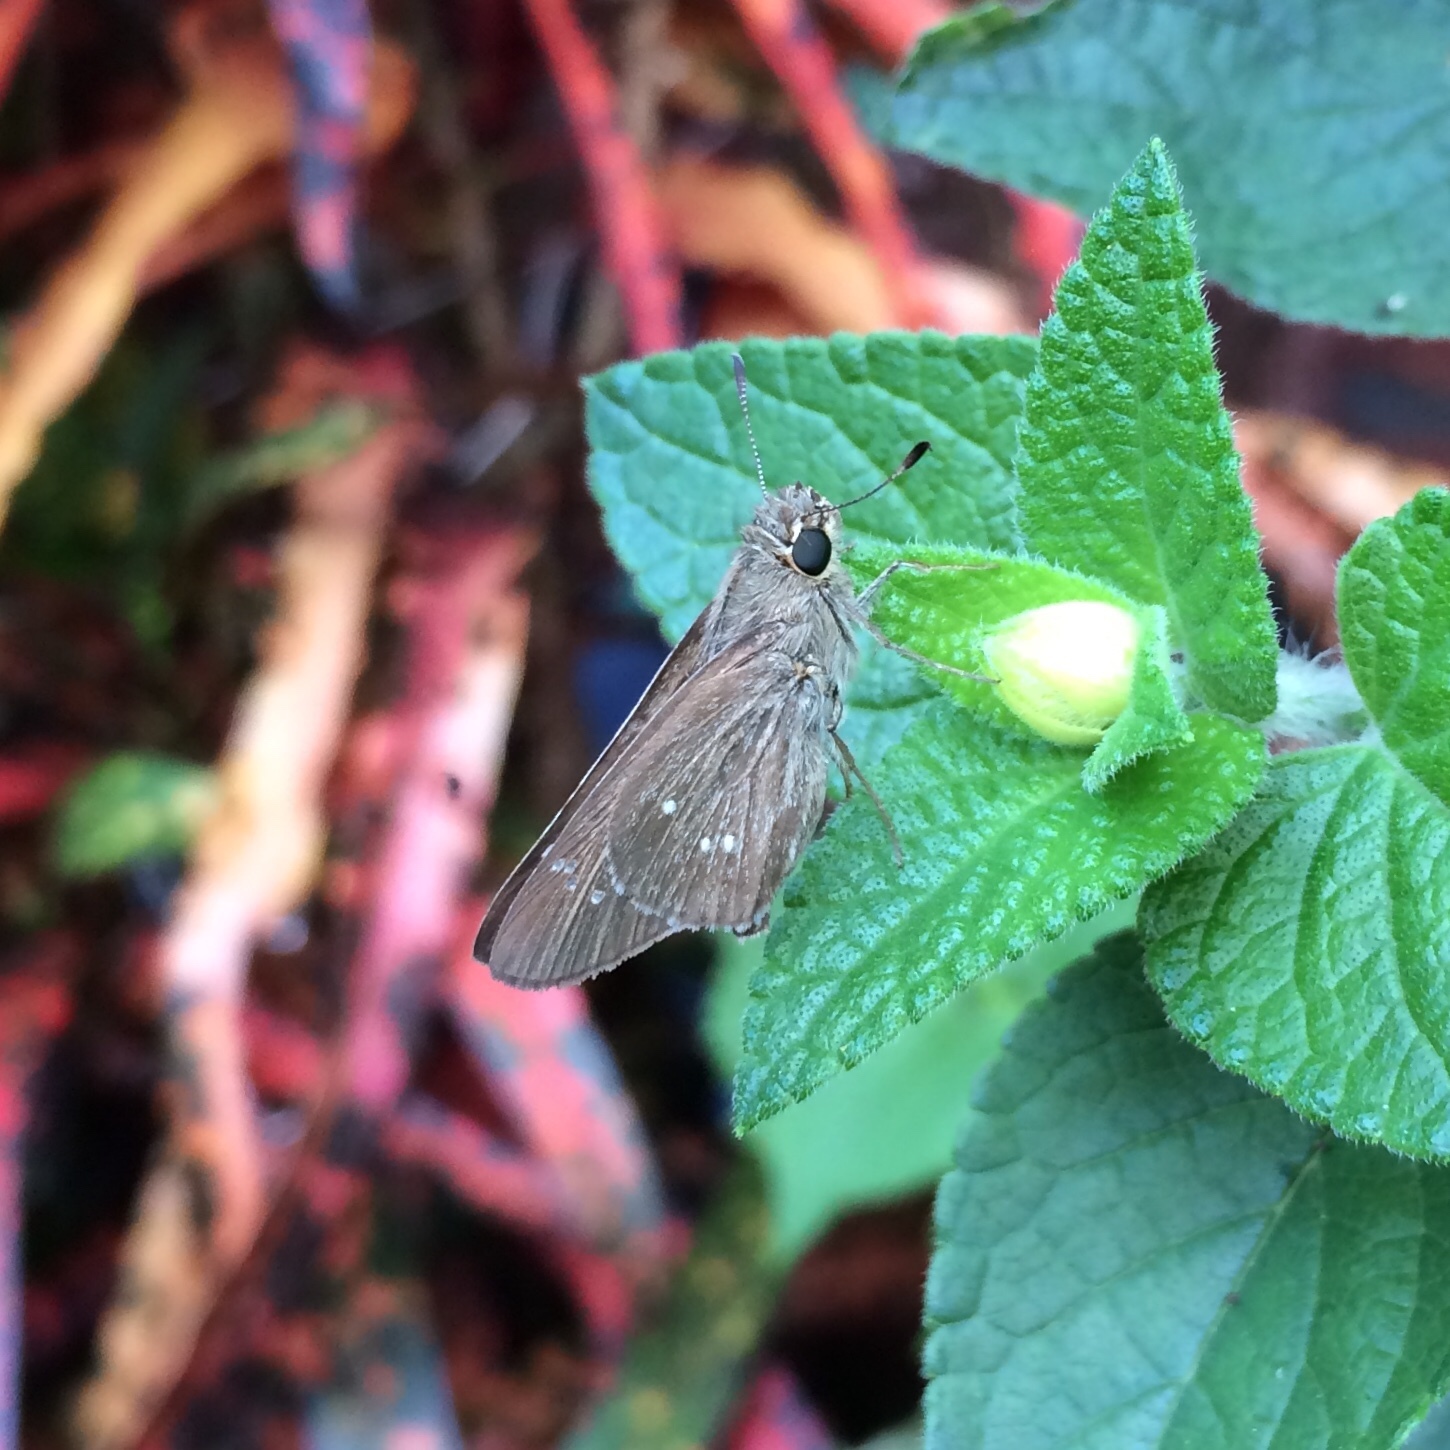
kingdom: Animalia
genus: Torbenlarsenia
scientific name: Torbenlarsenia
